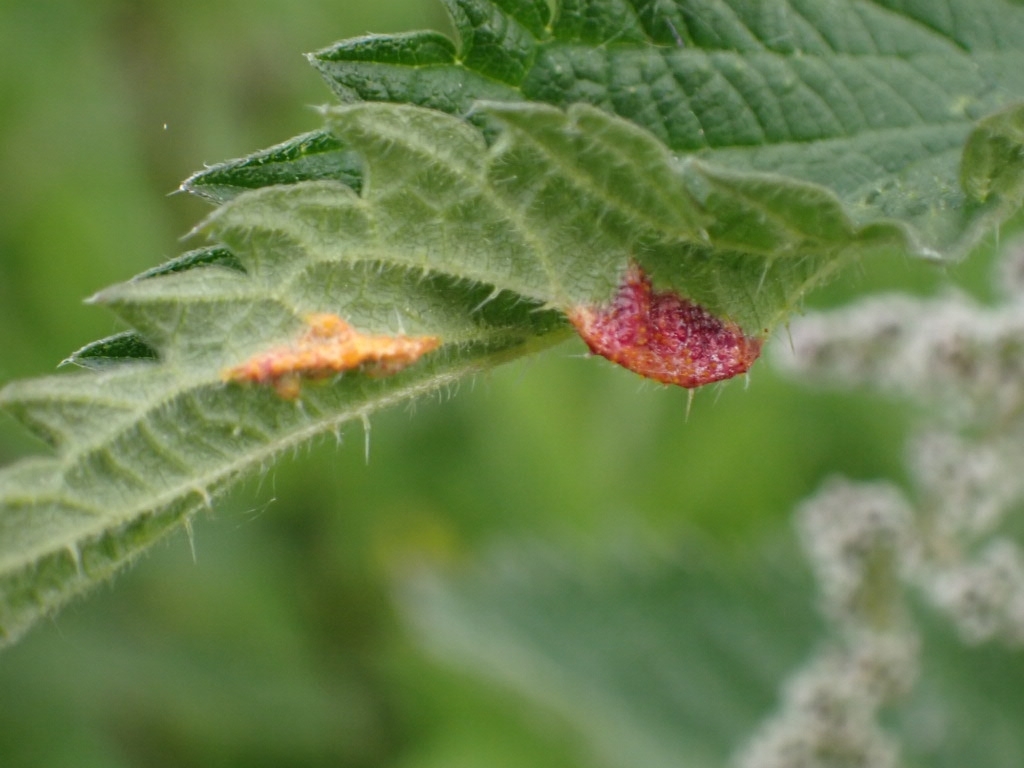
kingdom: Fungi
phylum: Basidiomycota
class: Pucciniomycetes
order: Pucciniales
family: Pucciniaceae
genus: Puccinia
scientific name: Puccinia urticata
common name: Nettle clustercup rust fungus
